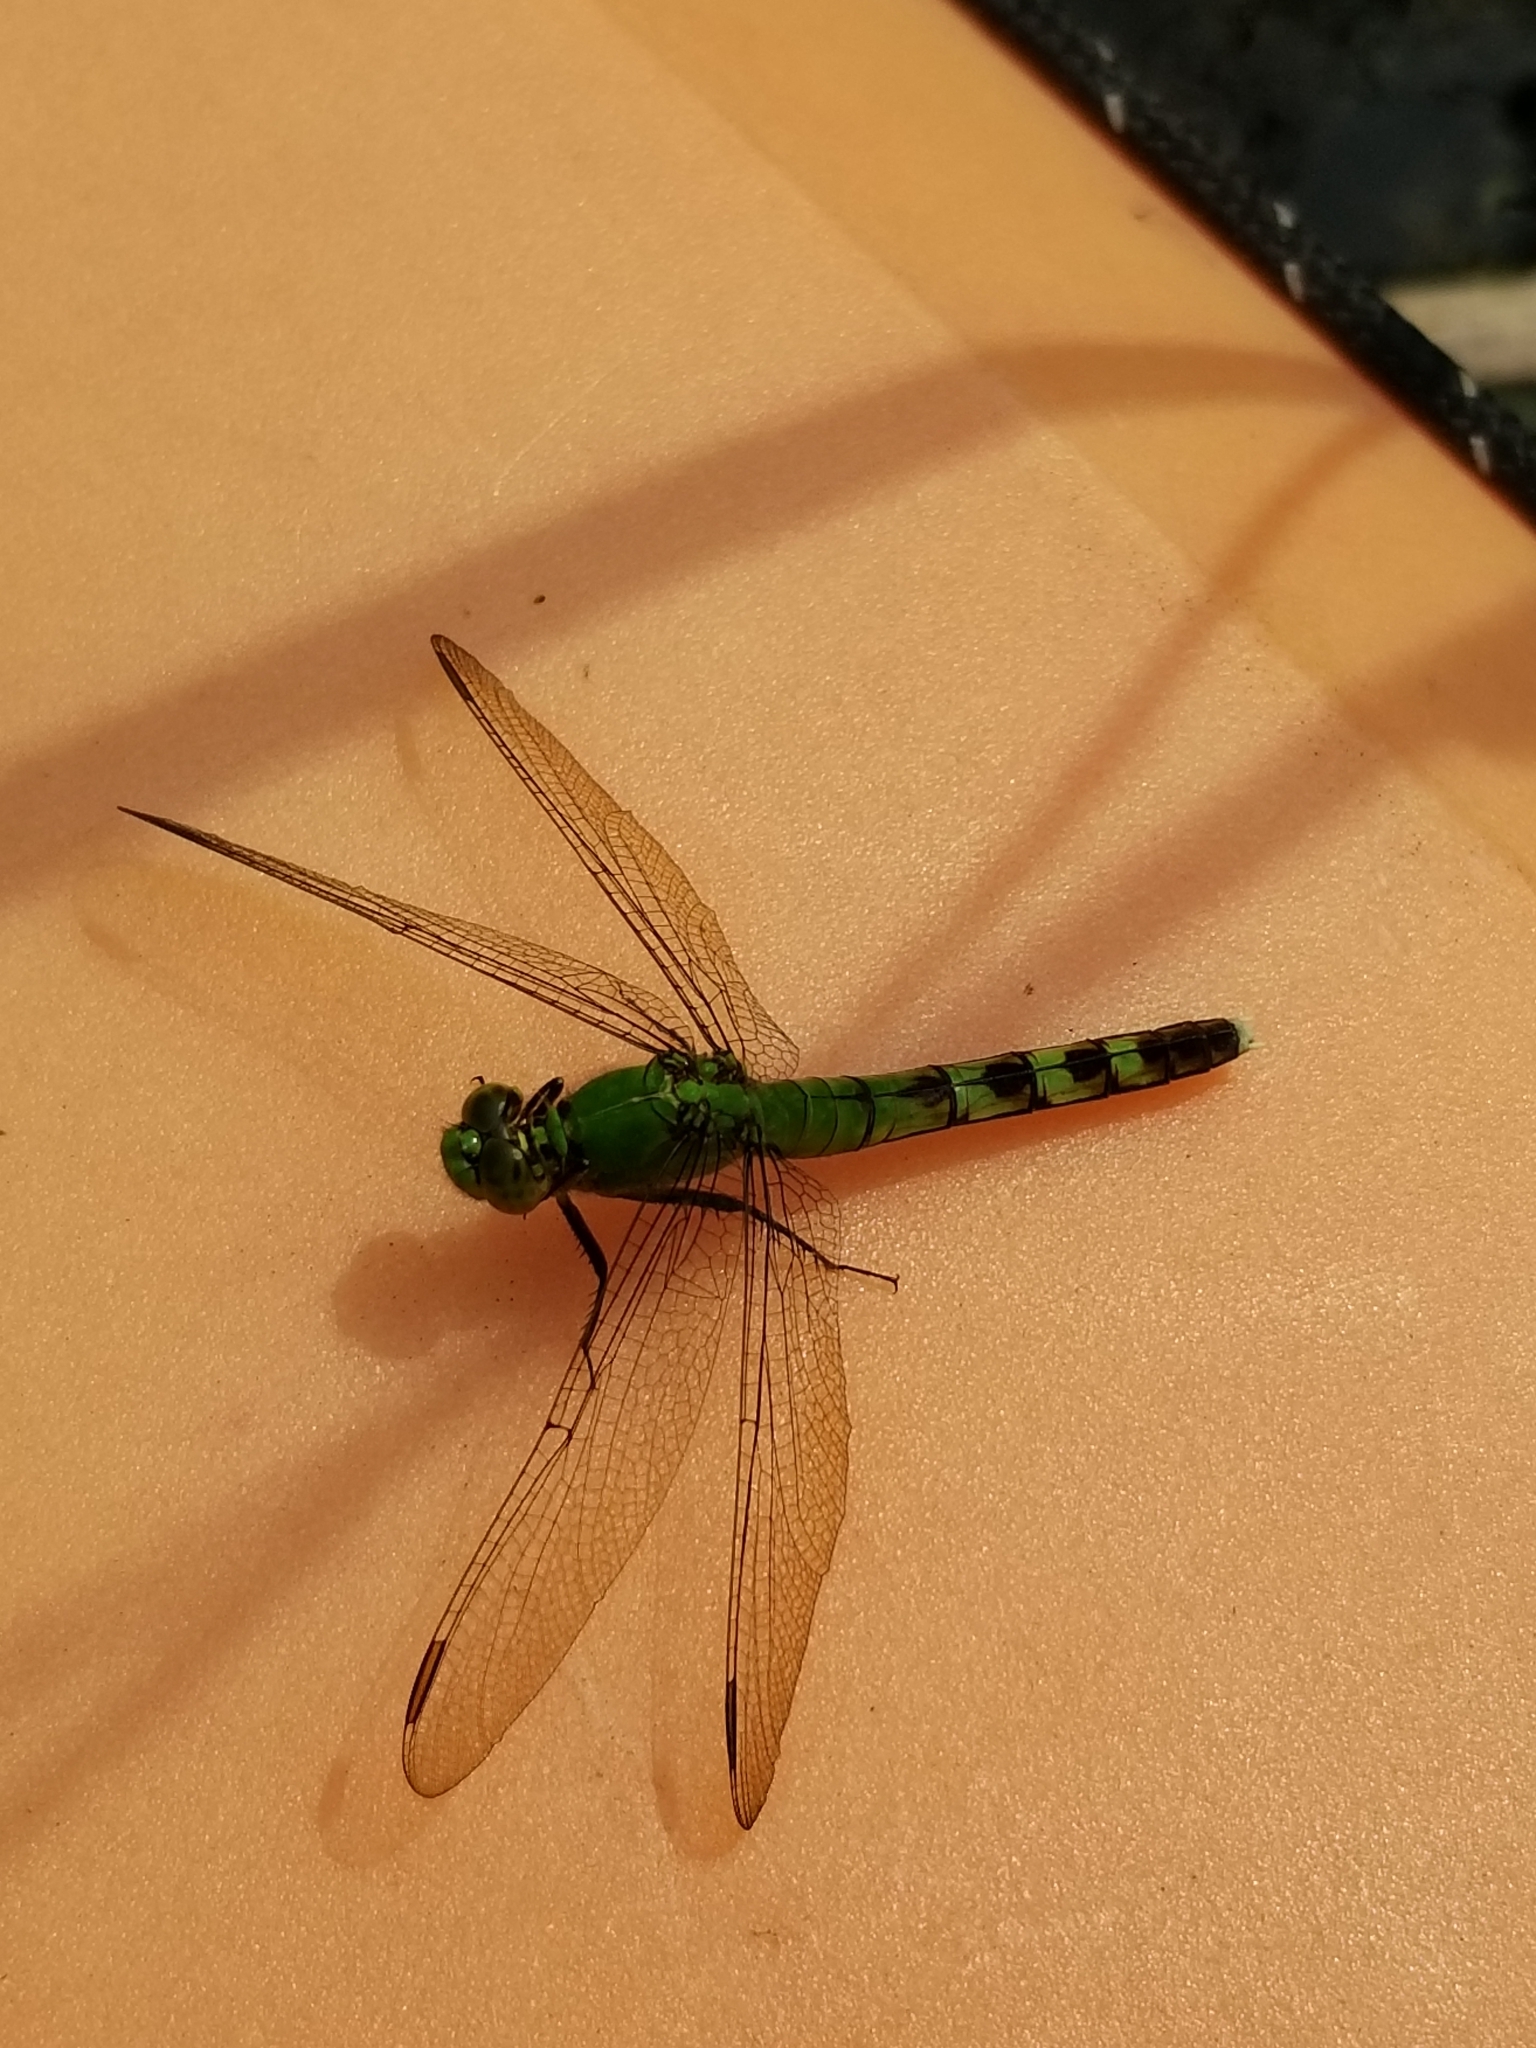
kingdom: Animalia
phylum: Arthropoda
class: Insecta
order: Odonata
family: Libellulidae
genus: Erythemis
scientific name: Erythemis simplicicollis
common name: Eastern pondhawk
